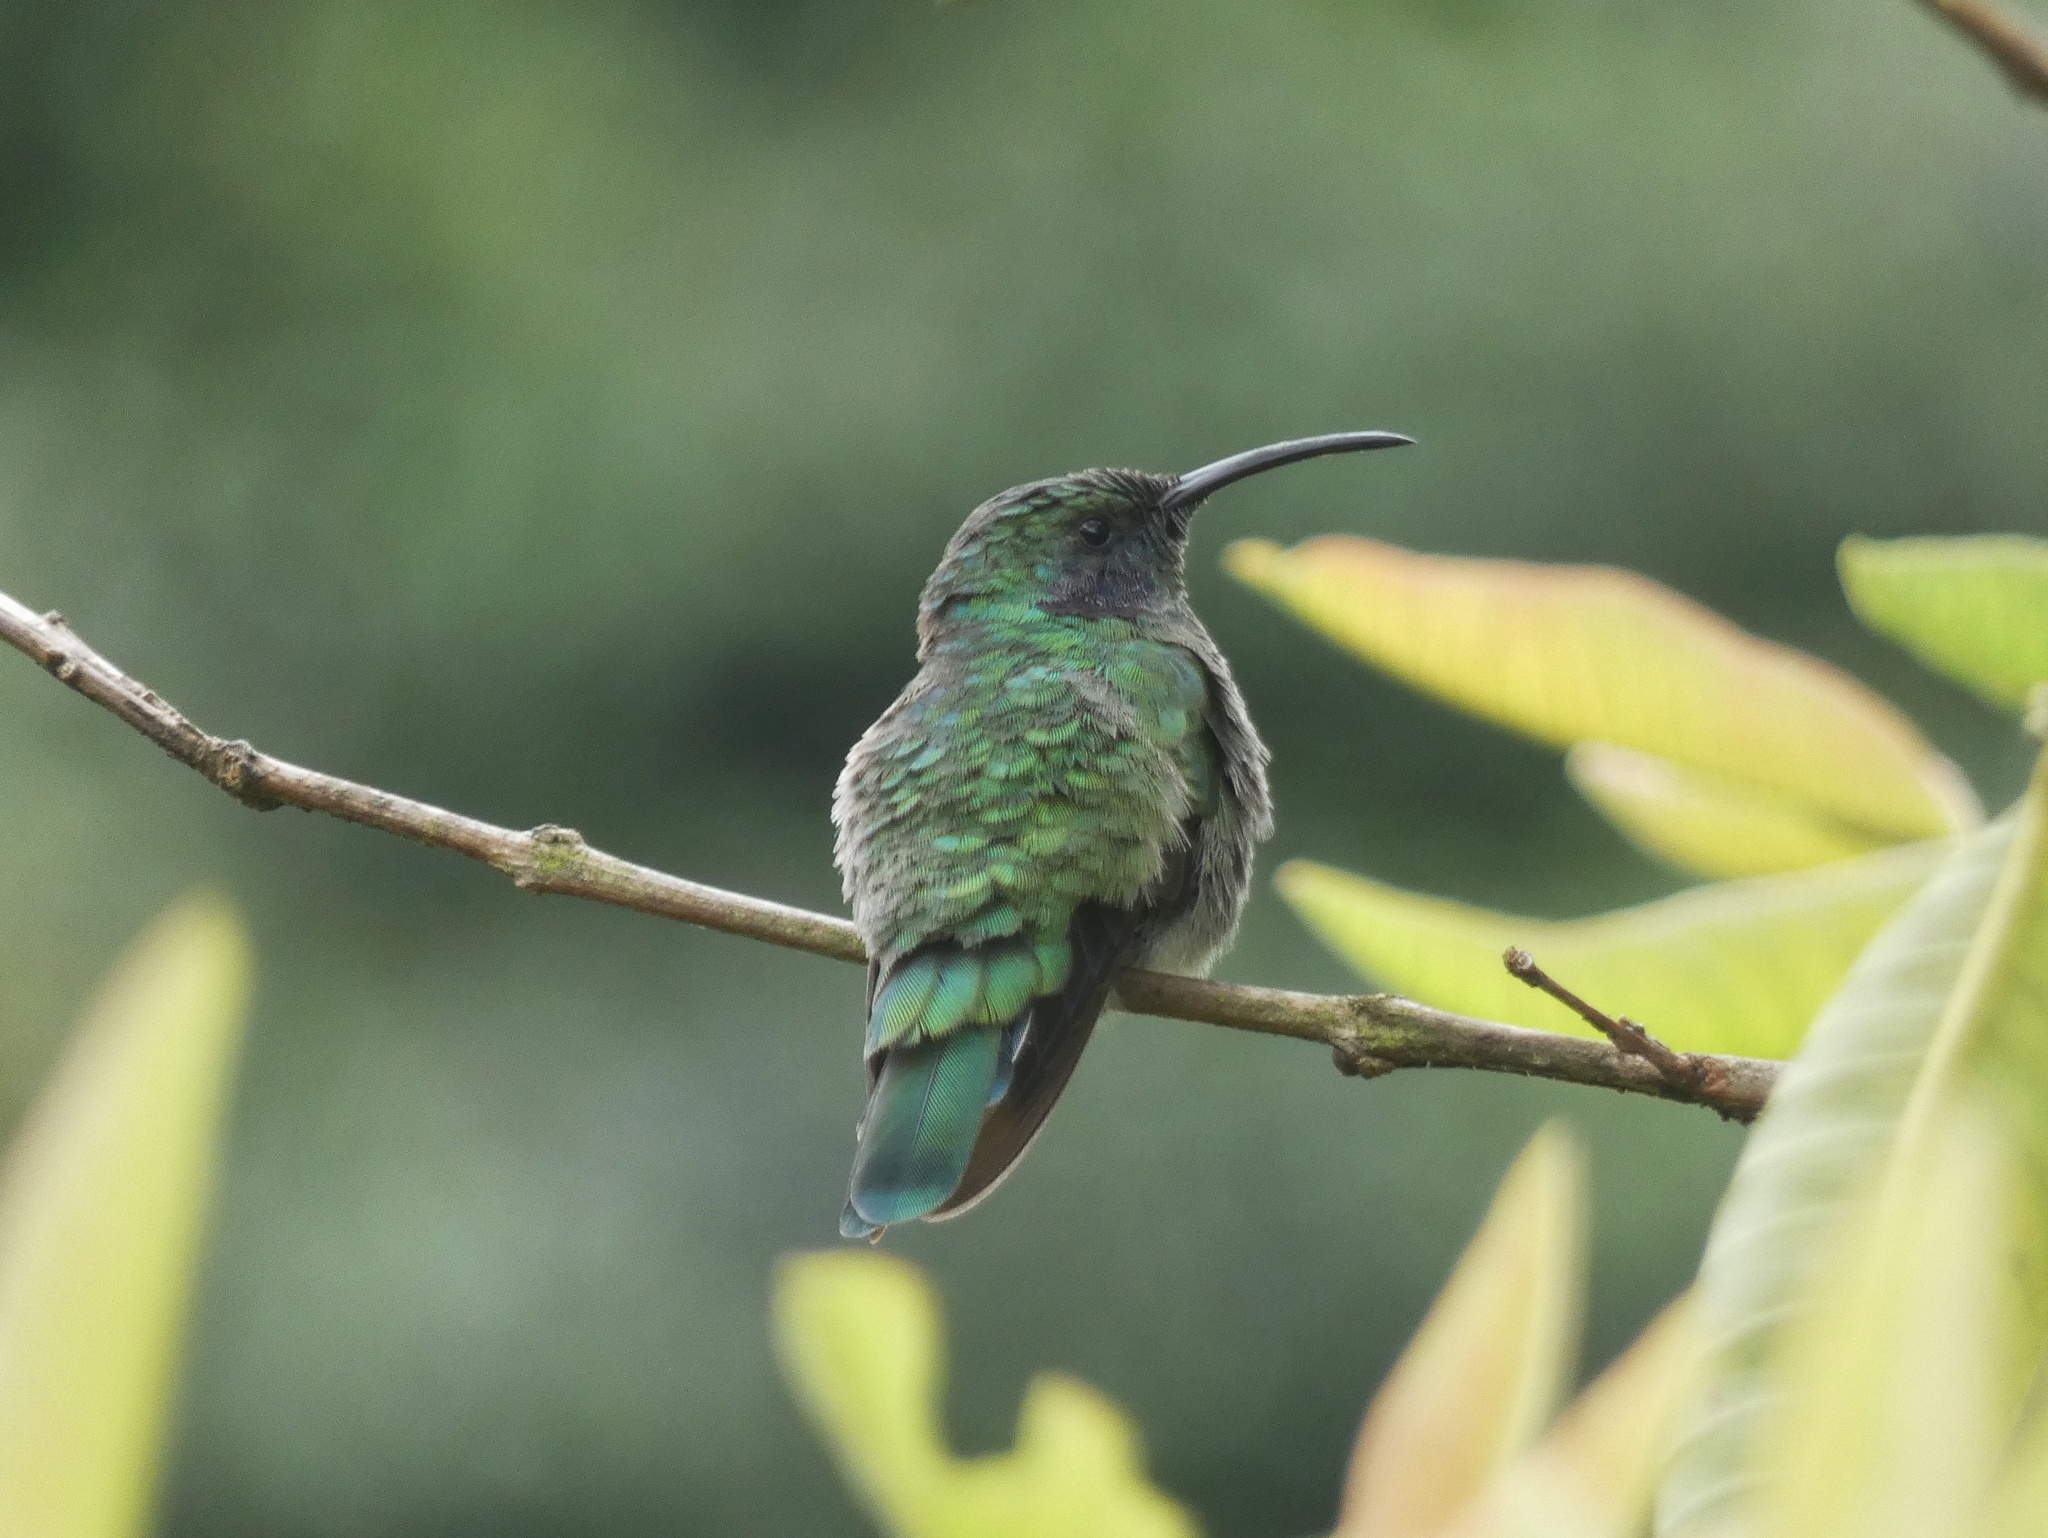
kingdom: Animalia
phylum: Chordata
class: Aves
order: Apodiformes
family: Trochilidae
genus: Colibri
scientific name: Colibri cyanotus
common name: Lesser violetear
